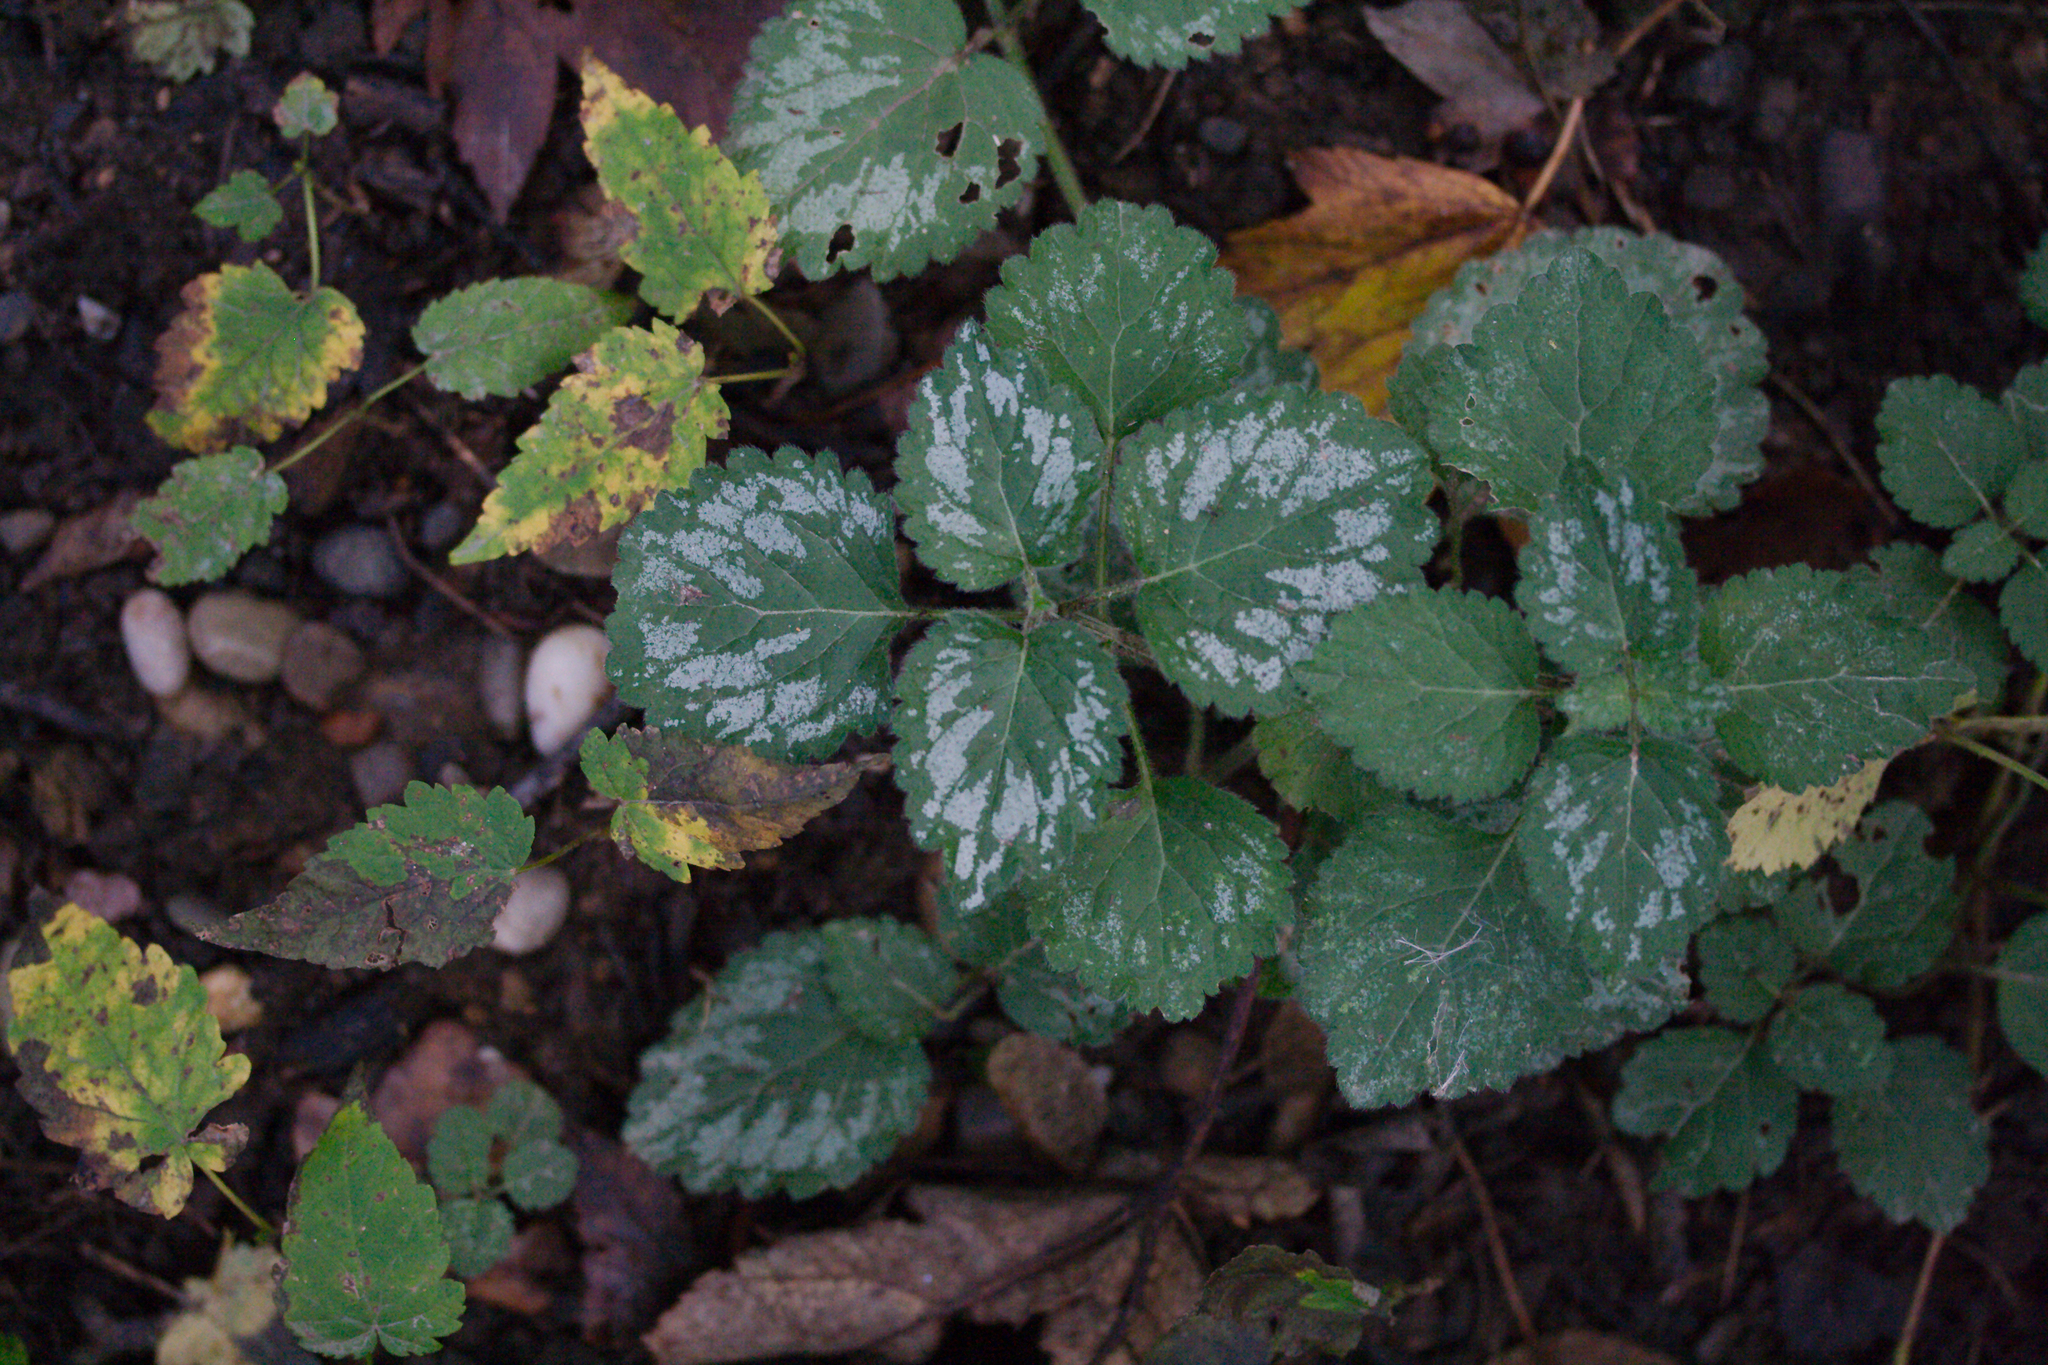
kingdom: Plantae
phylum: Tracheophyta
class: Magnoliopsida
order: Lamiales
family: Lamiaceae
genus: Lamium
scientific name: Lamium galeobdolon
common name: Yellow archangel
